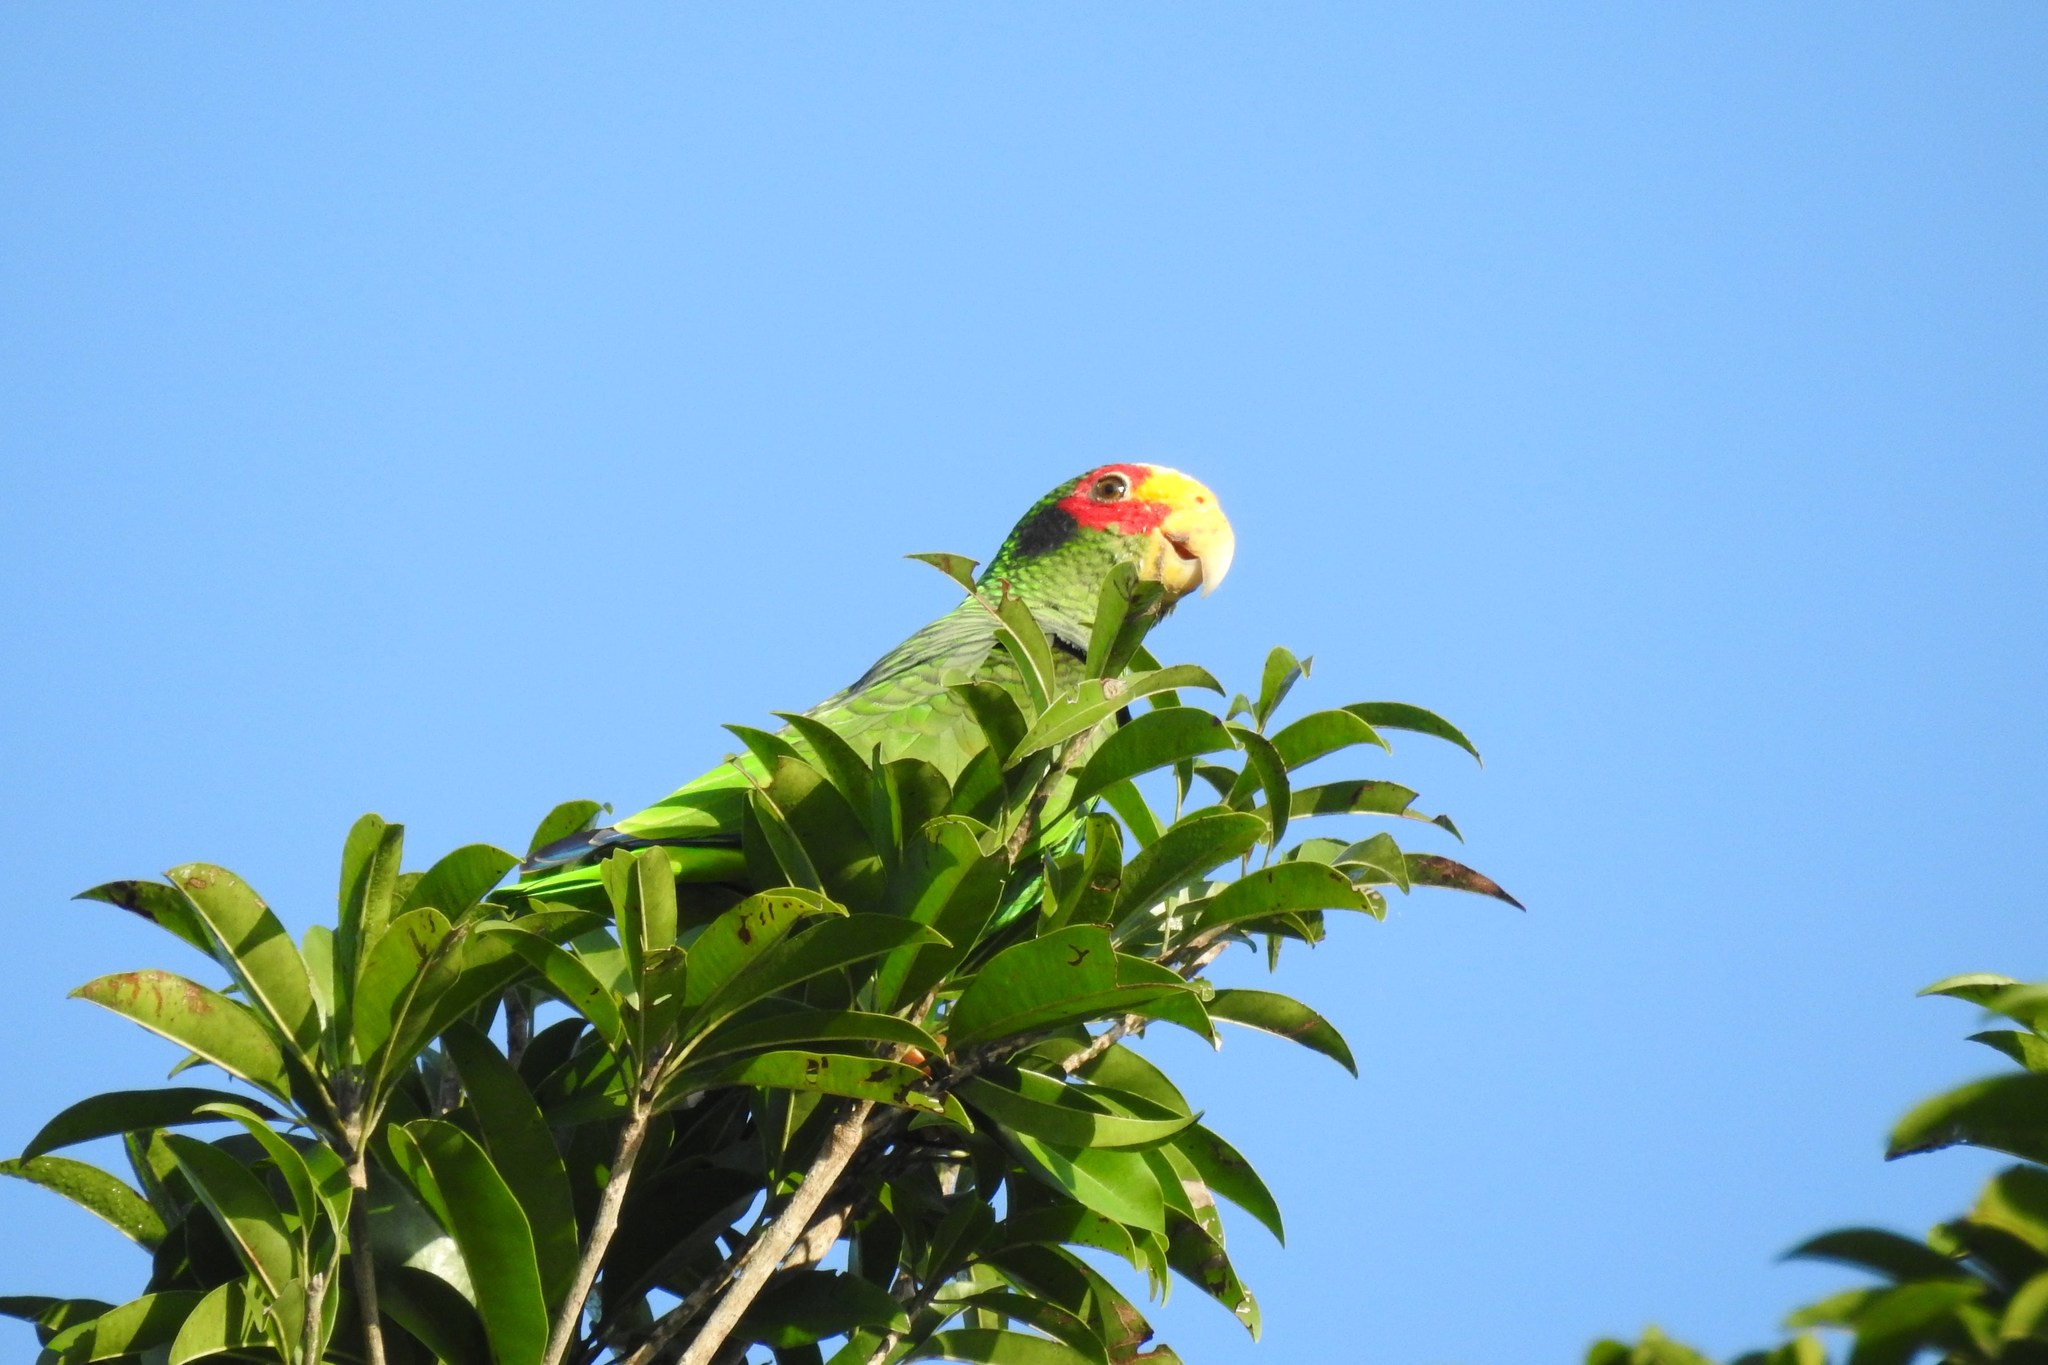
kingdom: Animalia
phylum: Chordata
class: Aves
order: Psittaciformes
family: Psittacidae
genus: Amazona
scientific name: Amazona xantholora
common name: Yucatan amazon
